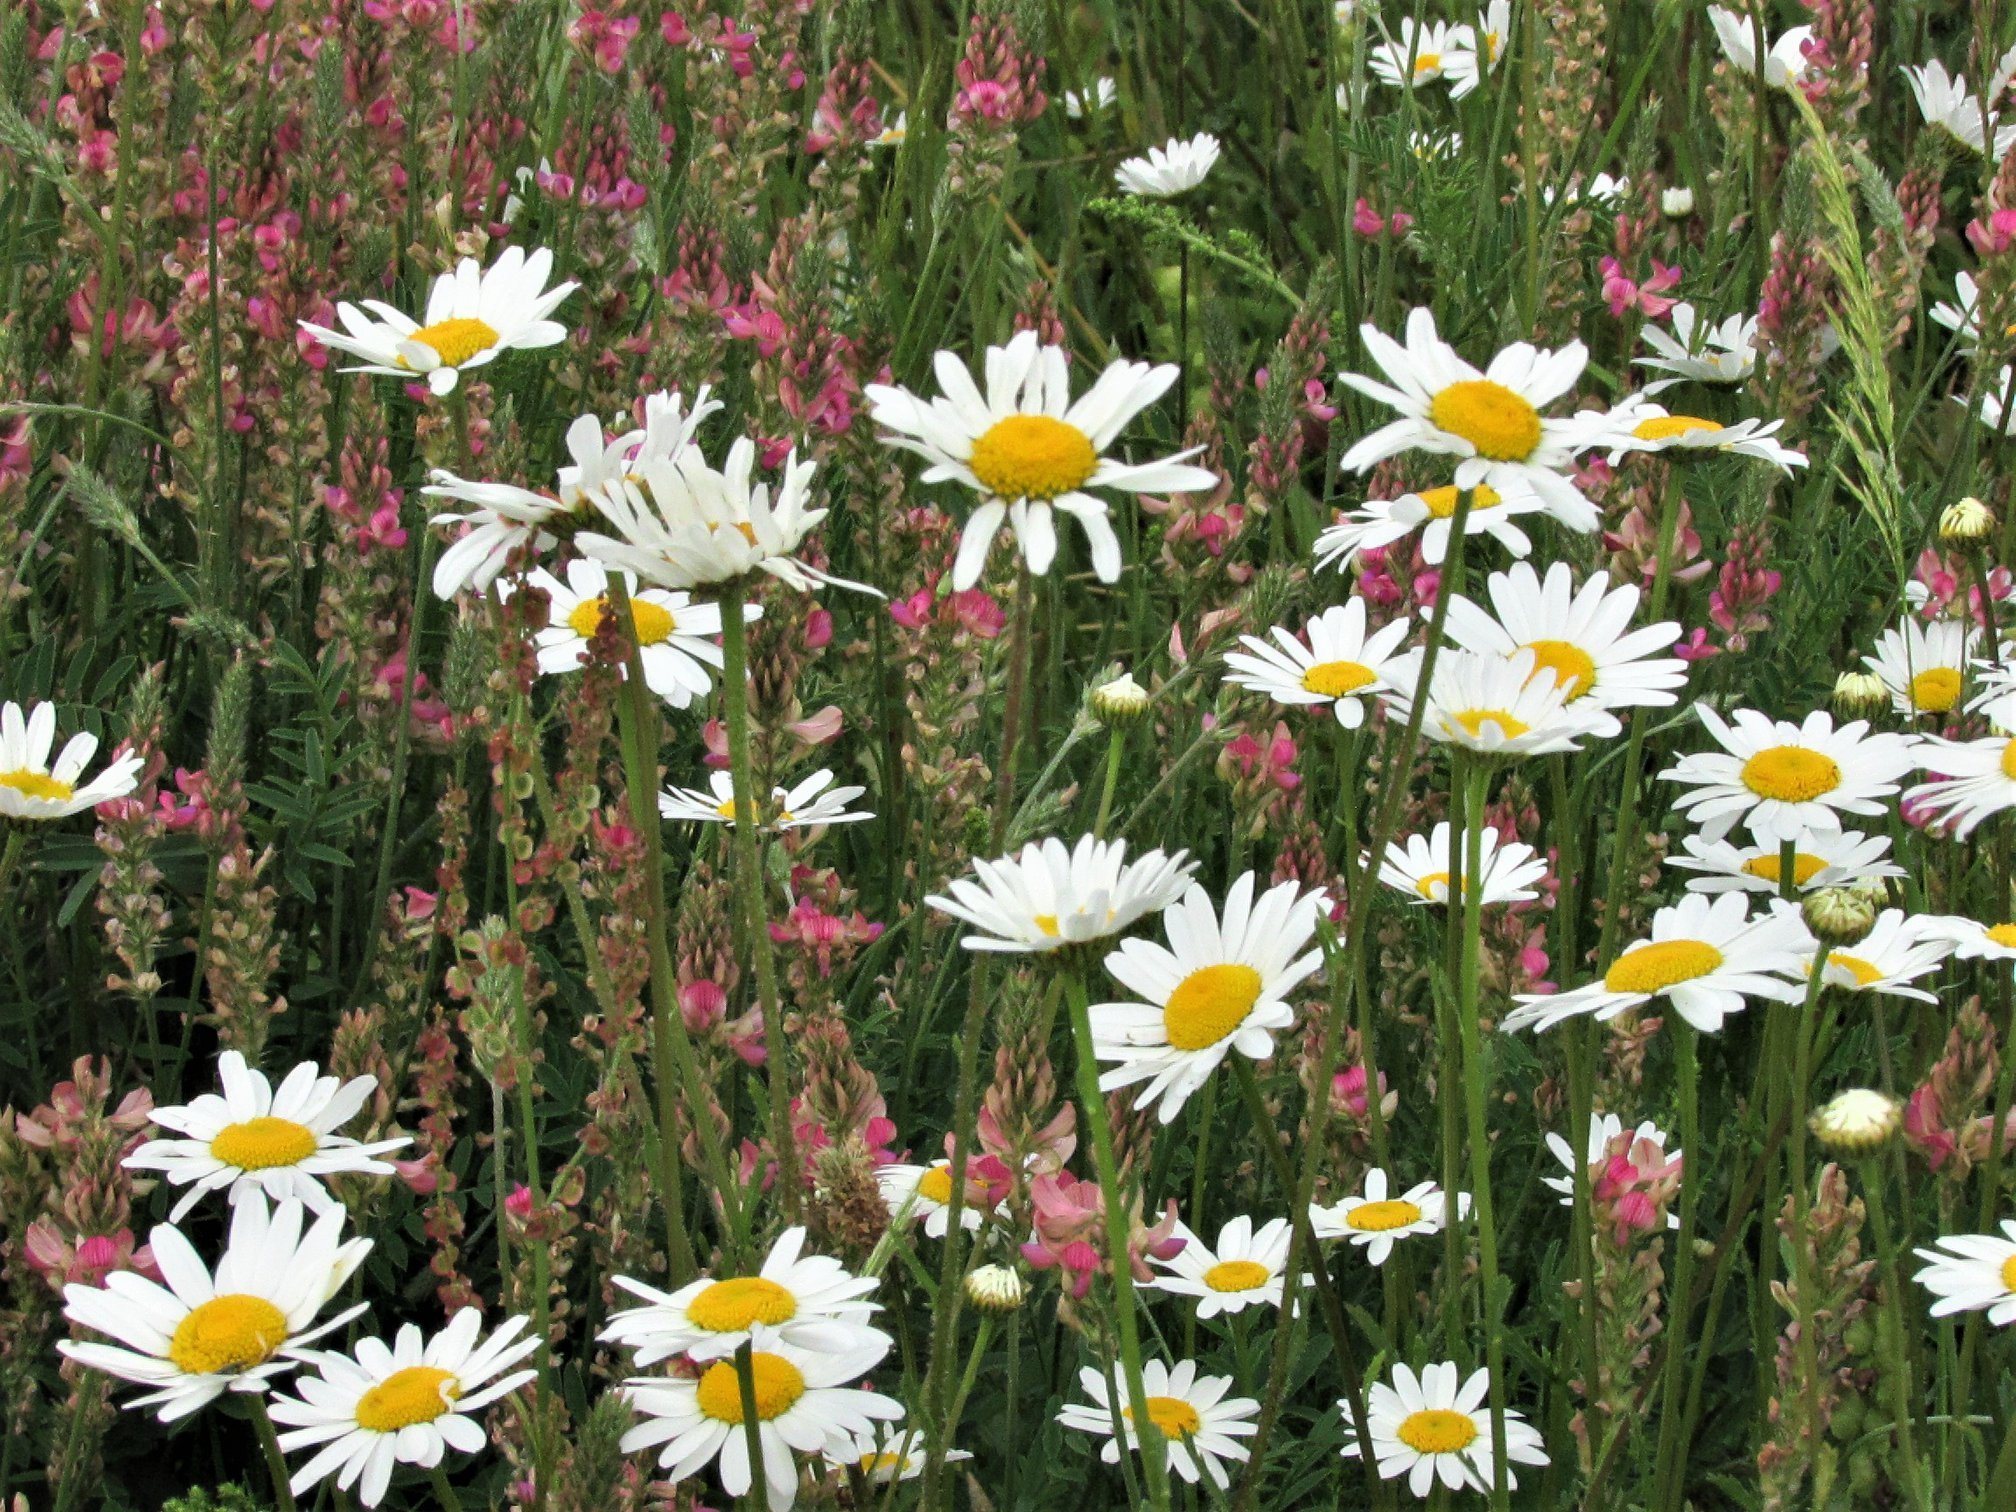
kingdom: Plantae
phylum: Tracheophyta
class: Magnoliopsida
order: Asterales
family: Asteraceae
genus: Leucanthemum
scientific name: Leucanthemum vulgare
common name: Oxeye daisy
